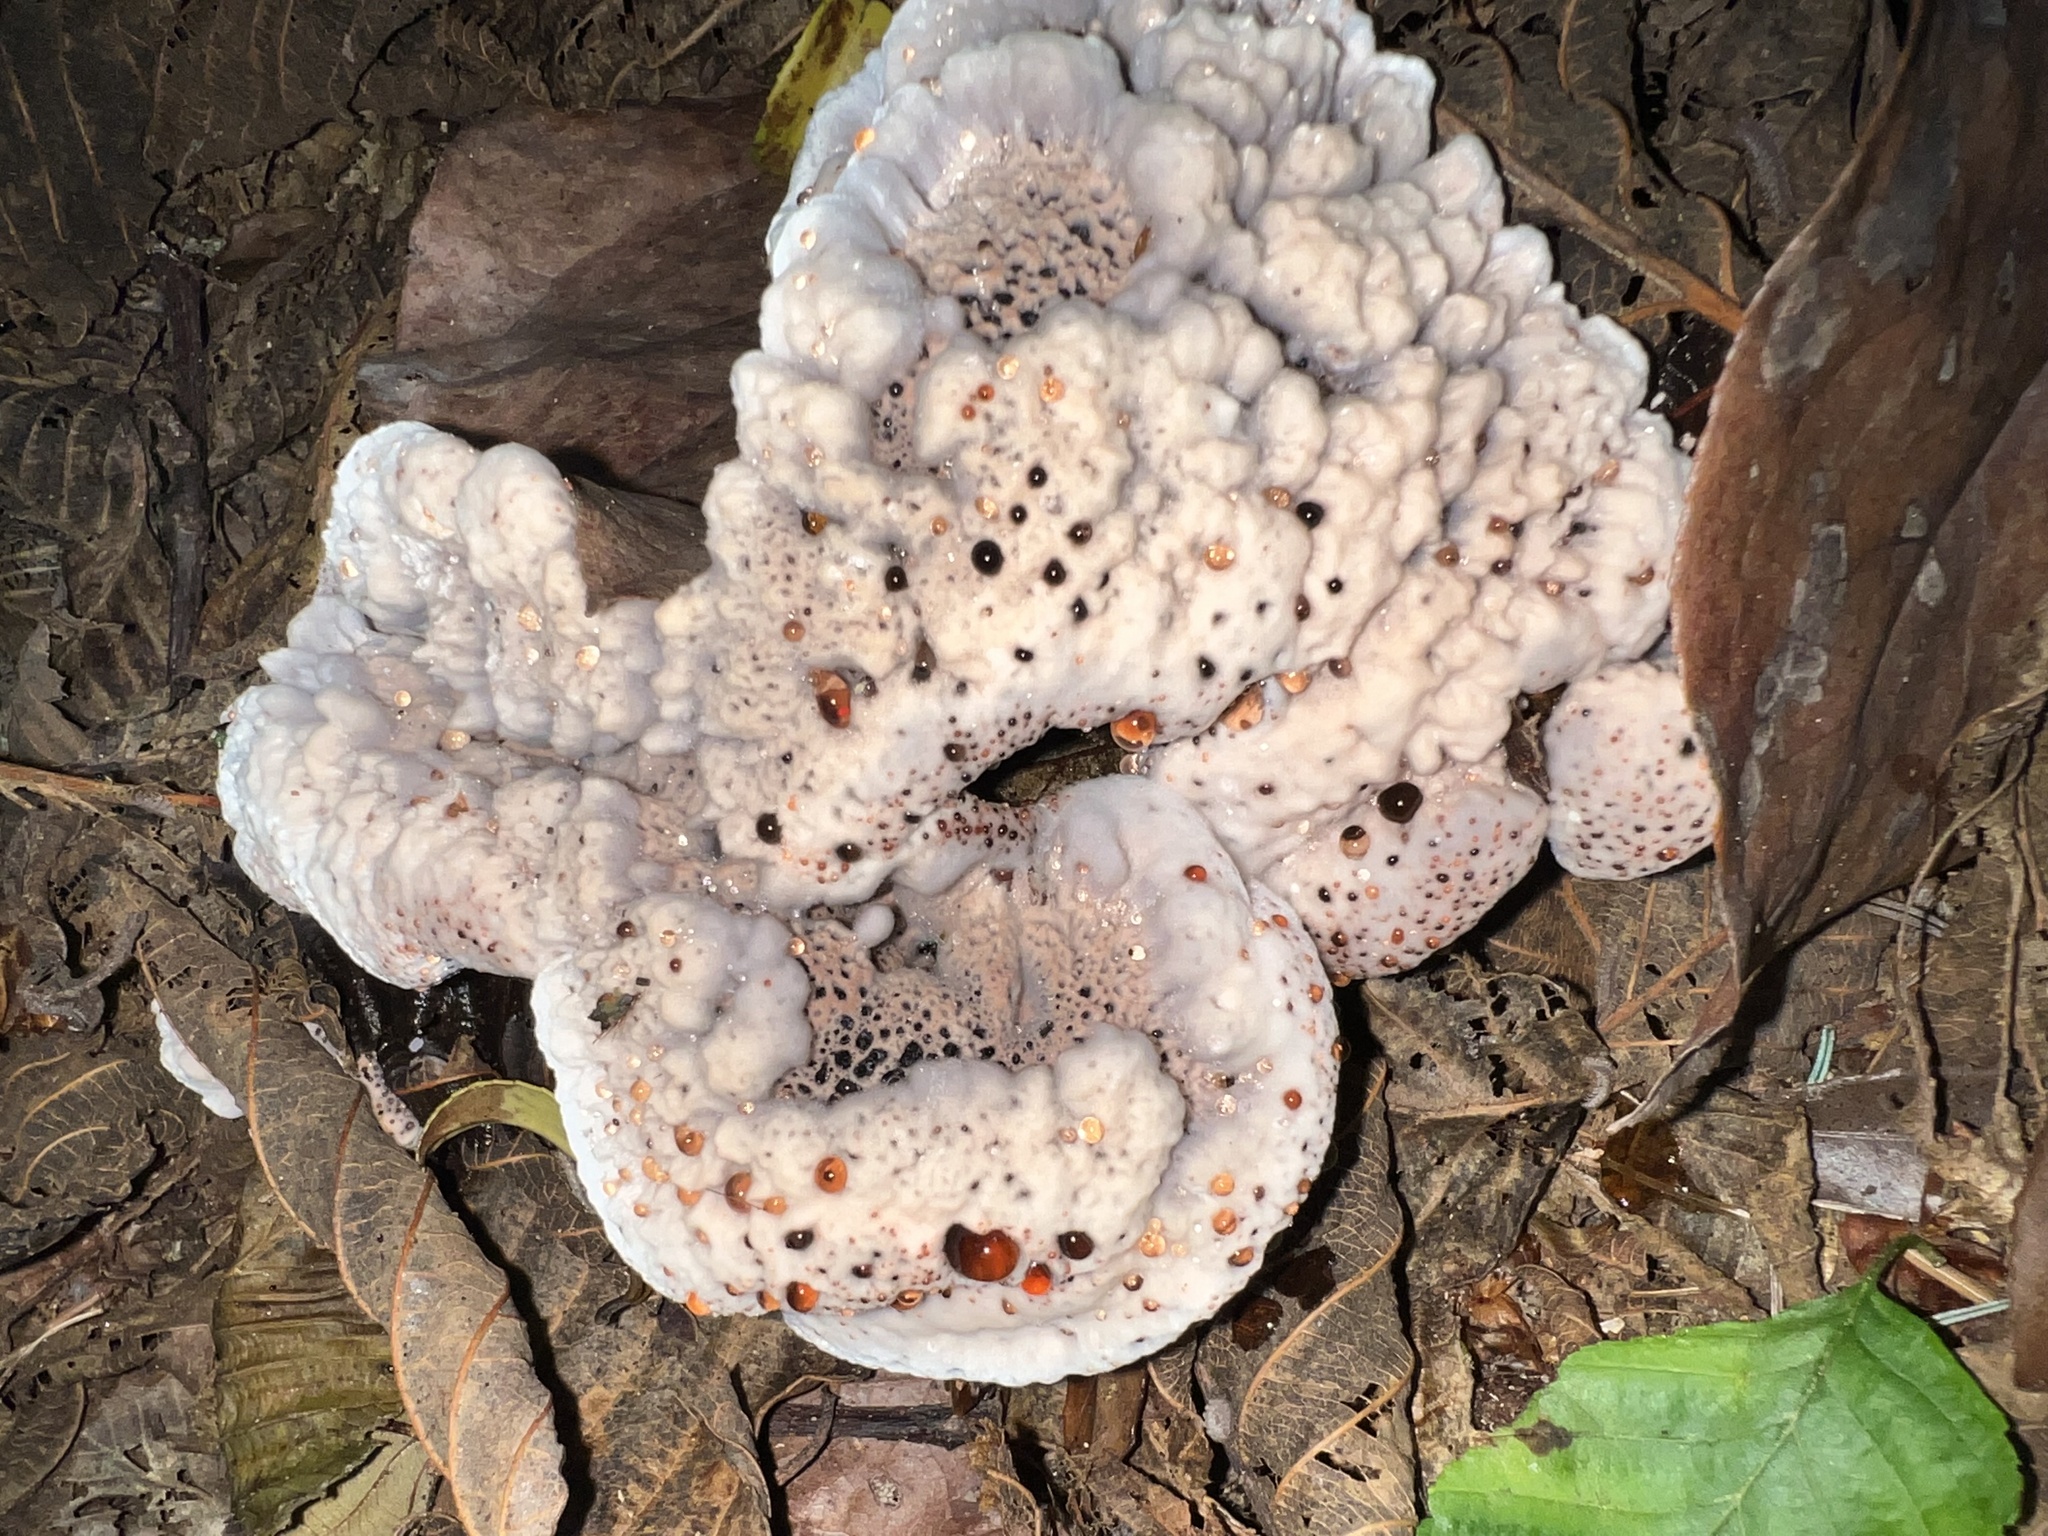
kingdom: Fungi
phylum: Basidiomycota
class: Agaricomycetes
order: Thelephorales
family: Bankeraceae
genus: Hydnellum
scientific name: Hydnellum cyanopodium
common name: Bleeding blue tooth
